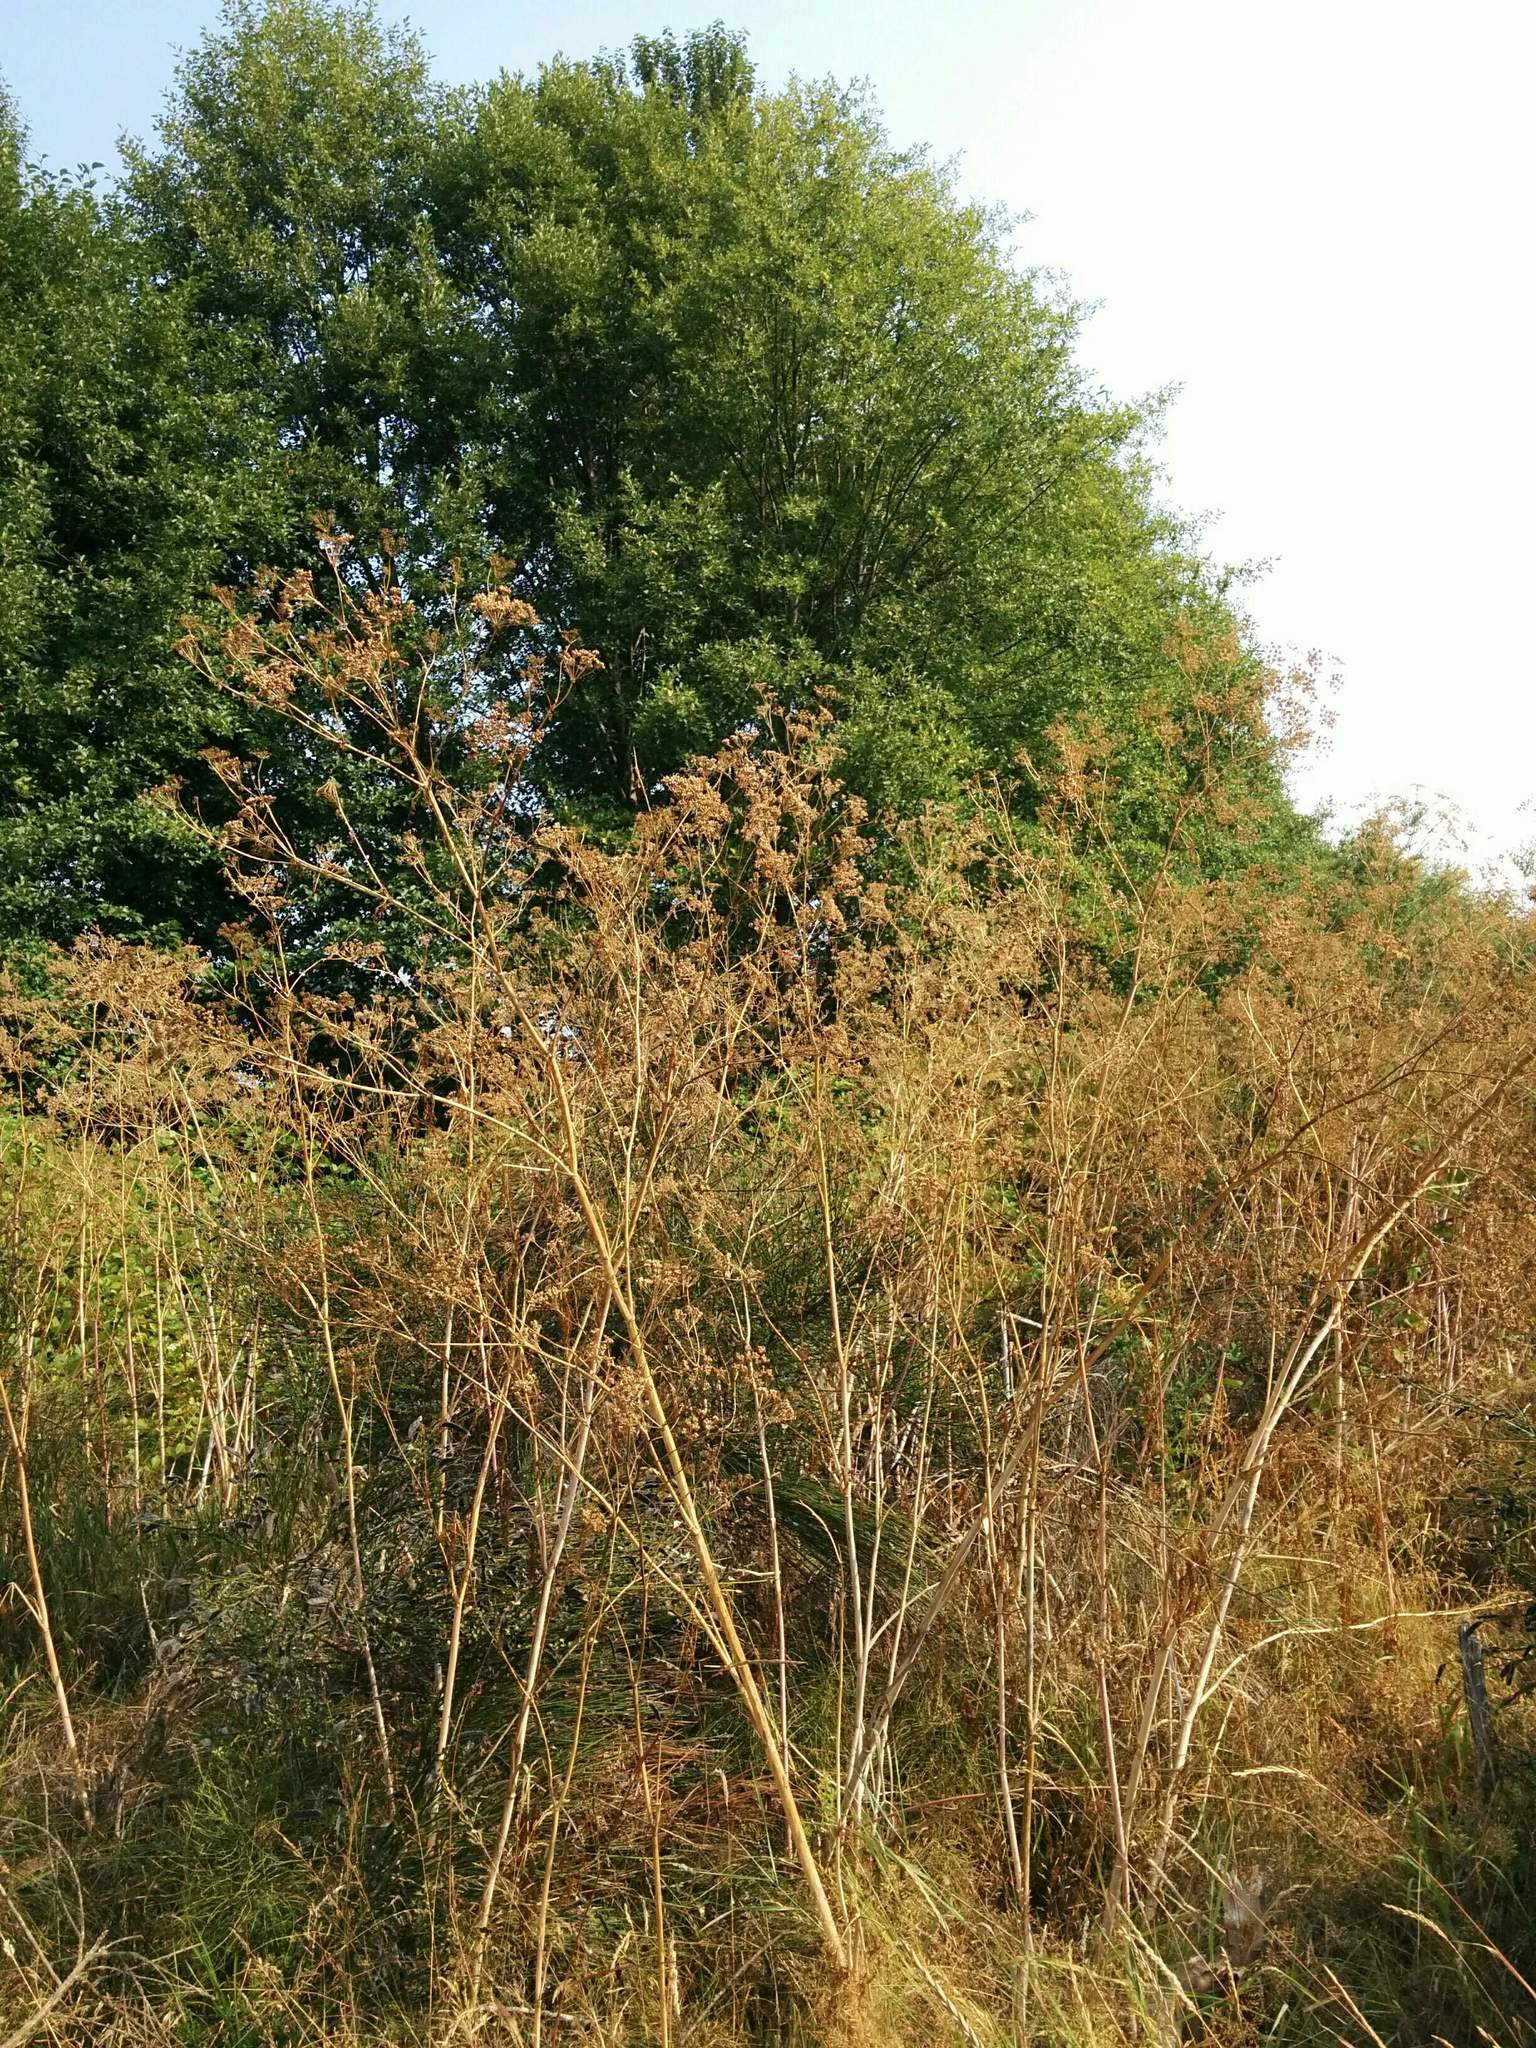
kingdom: Plantae
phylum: Tracheophyta
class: Magnoliopsida
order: Apiales
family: Apiaceae
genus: Conium
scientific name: Conium maculatum
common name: Hemlock
